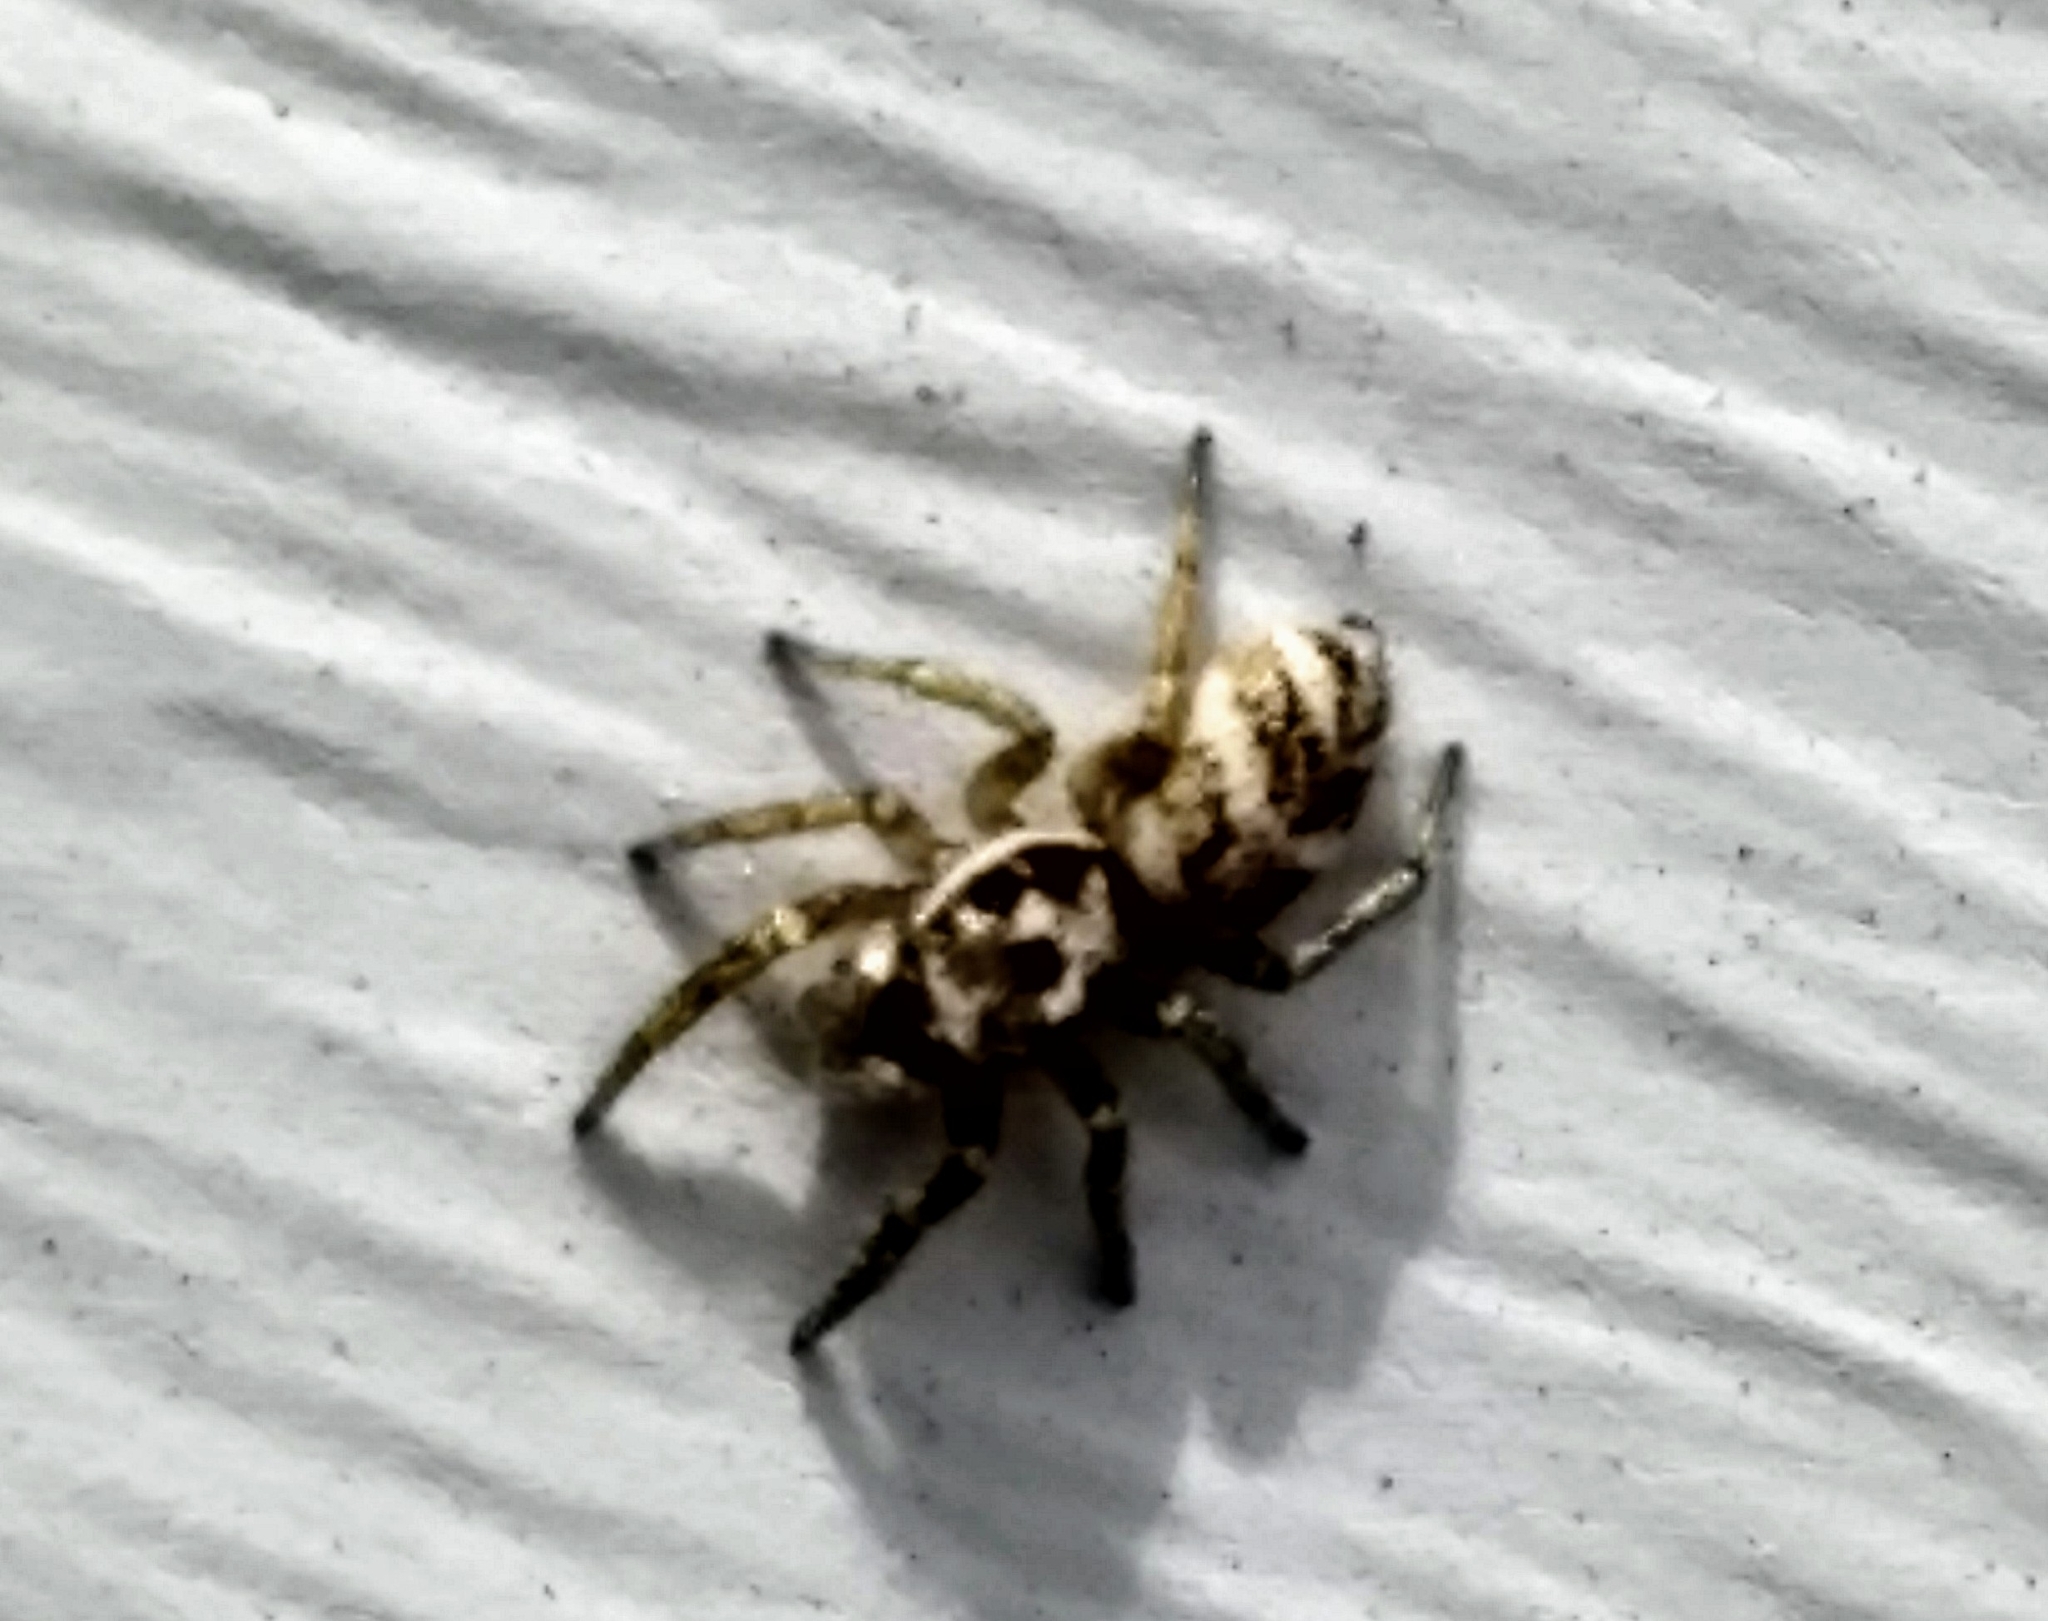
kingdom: Animalia
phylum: Arthropoda
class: Arachnida
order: Araneae
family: Salticidae
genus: Salticus
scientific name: Salticus scenicus
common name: Zebra jumper
